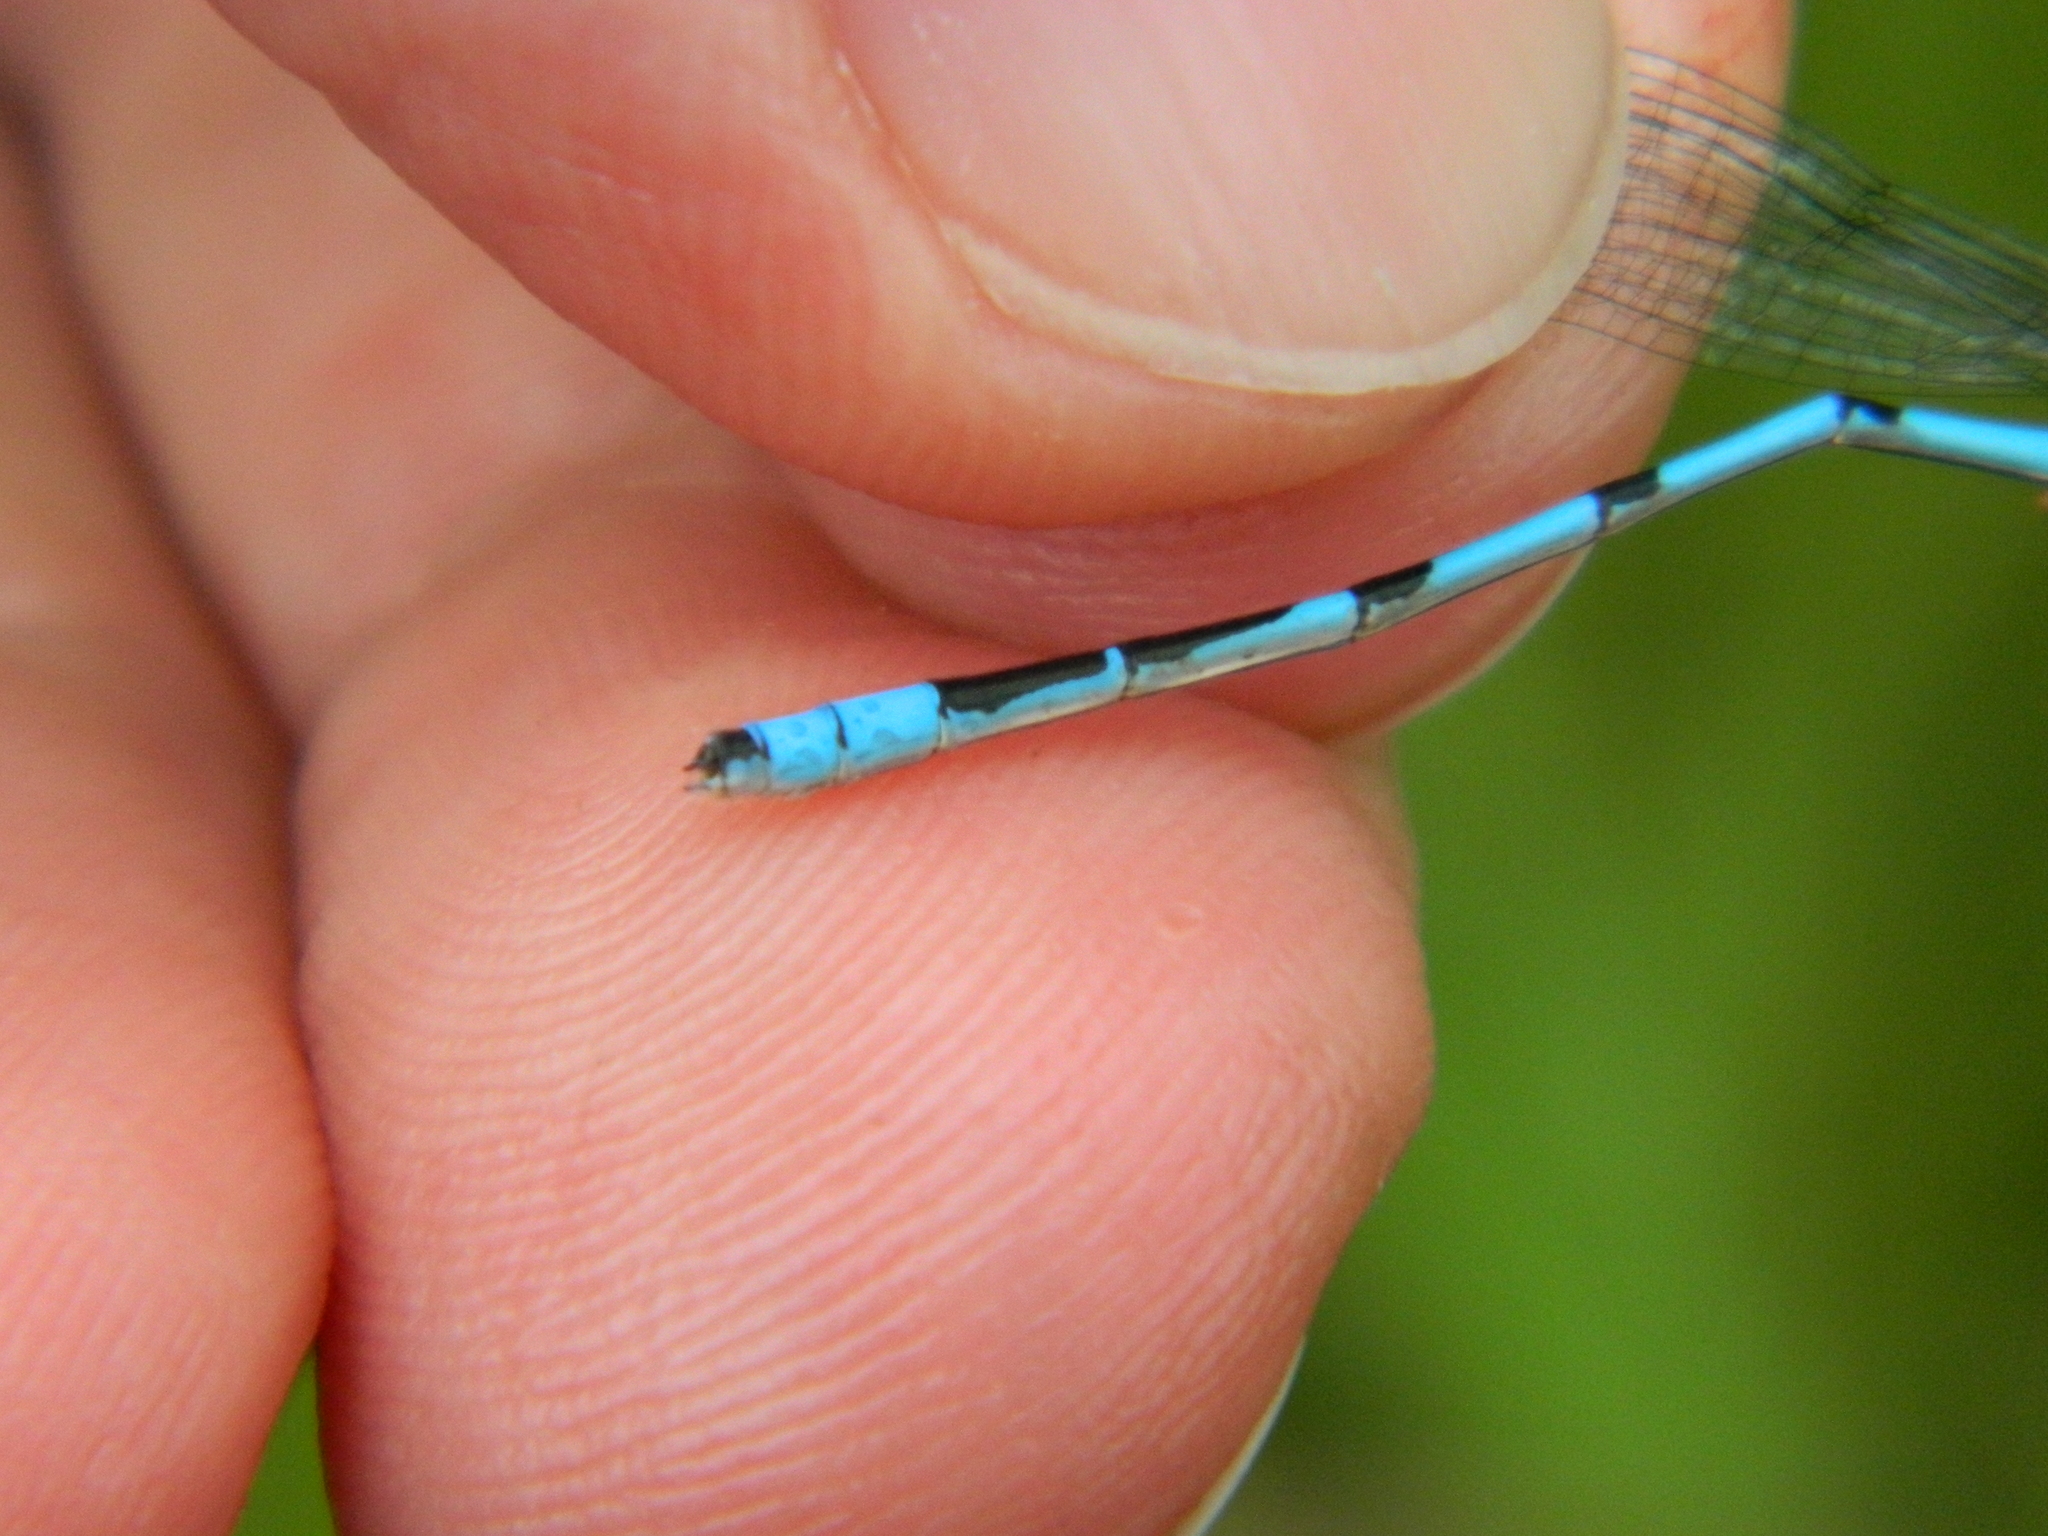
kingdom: Animalia
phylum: Arthropoda
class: Insecta
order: Odonata
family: Coenagrionidae
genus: Enallagma
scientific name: Enallagma hageni
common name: Hagen's bluet
